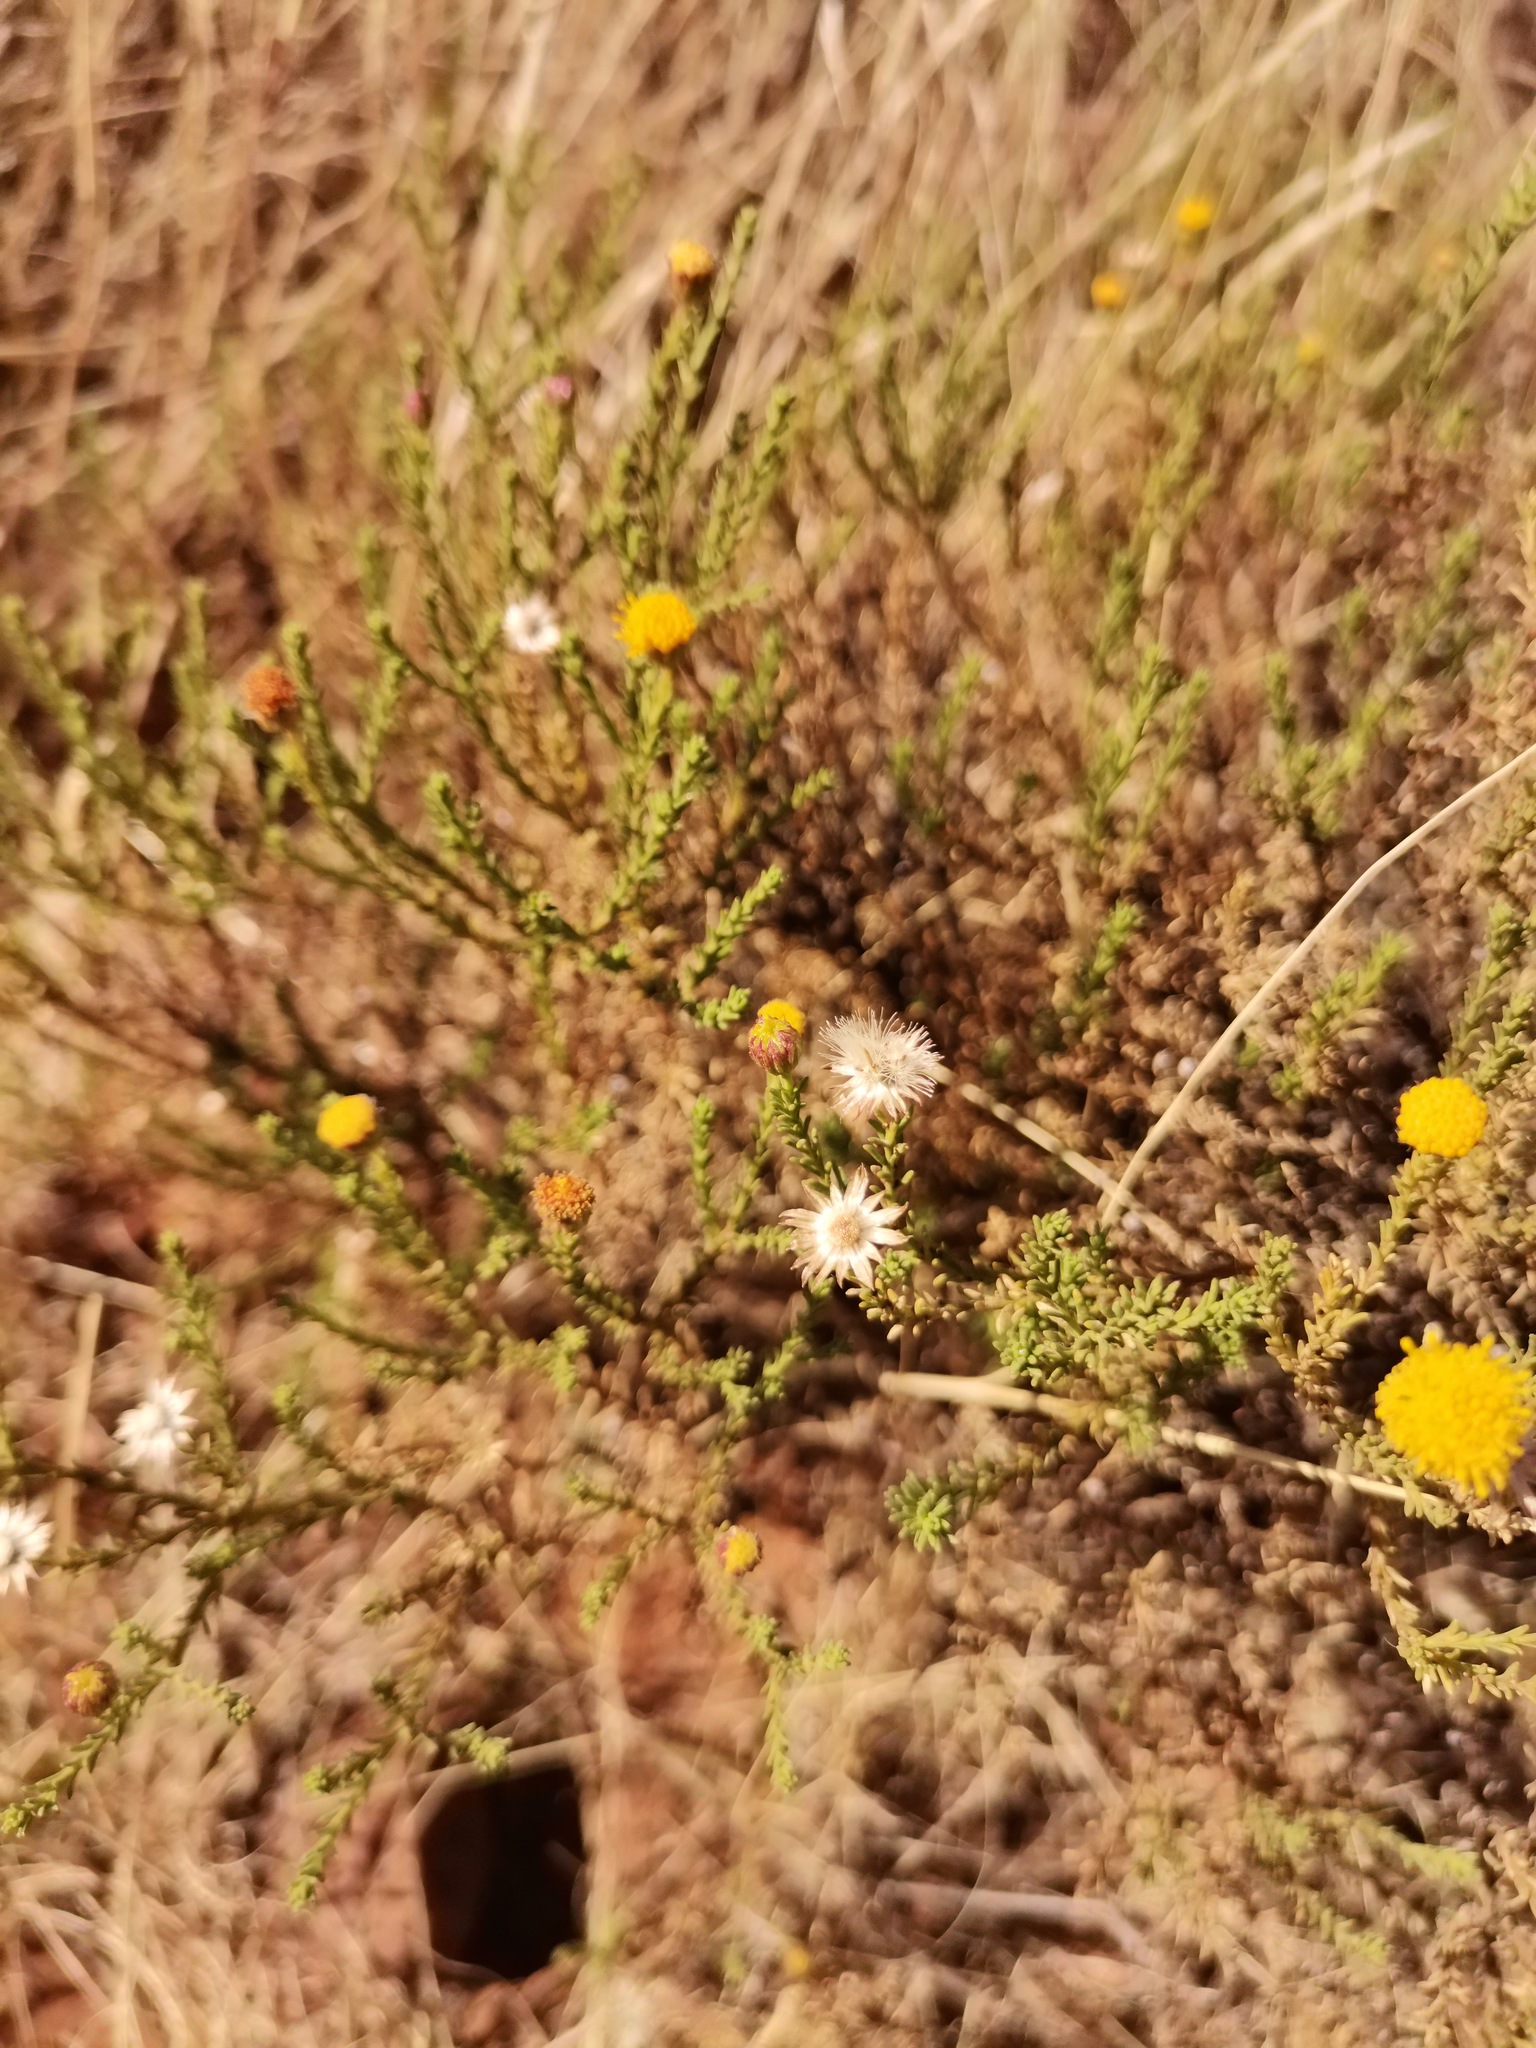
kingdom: Plantae
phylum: Tracheophyta
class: Magnoliopsida
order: Asterales
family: Asteraceae
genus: Chrysocoma
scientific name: Chrysocoma ciliata
